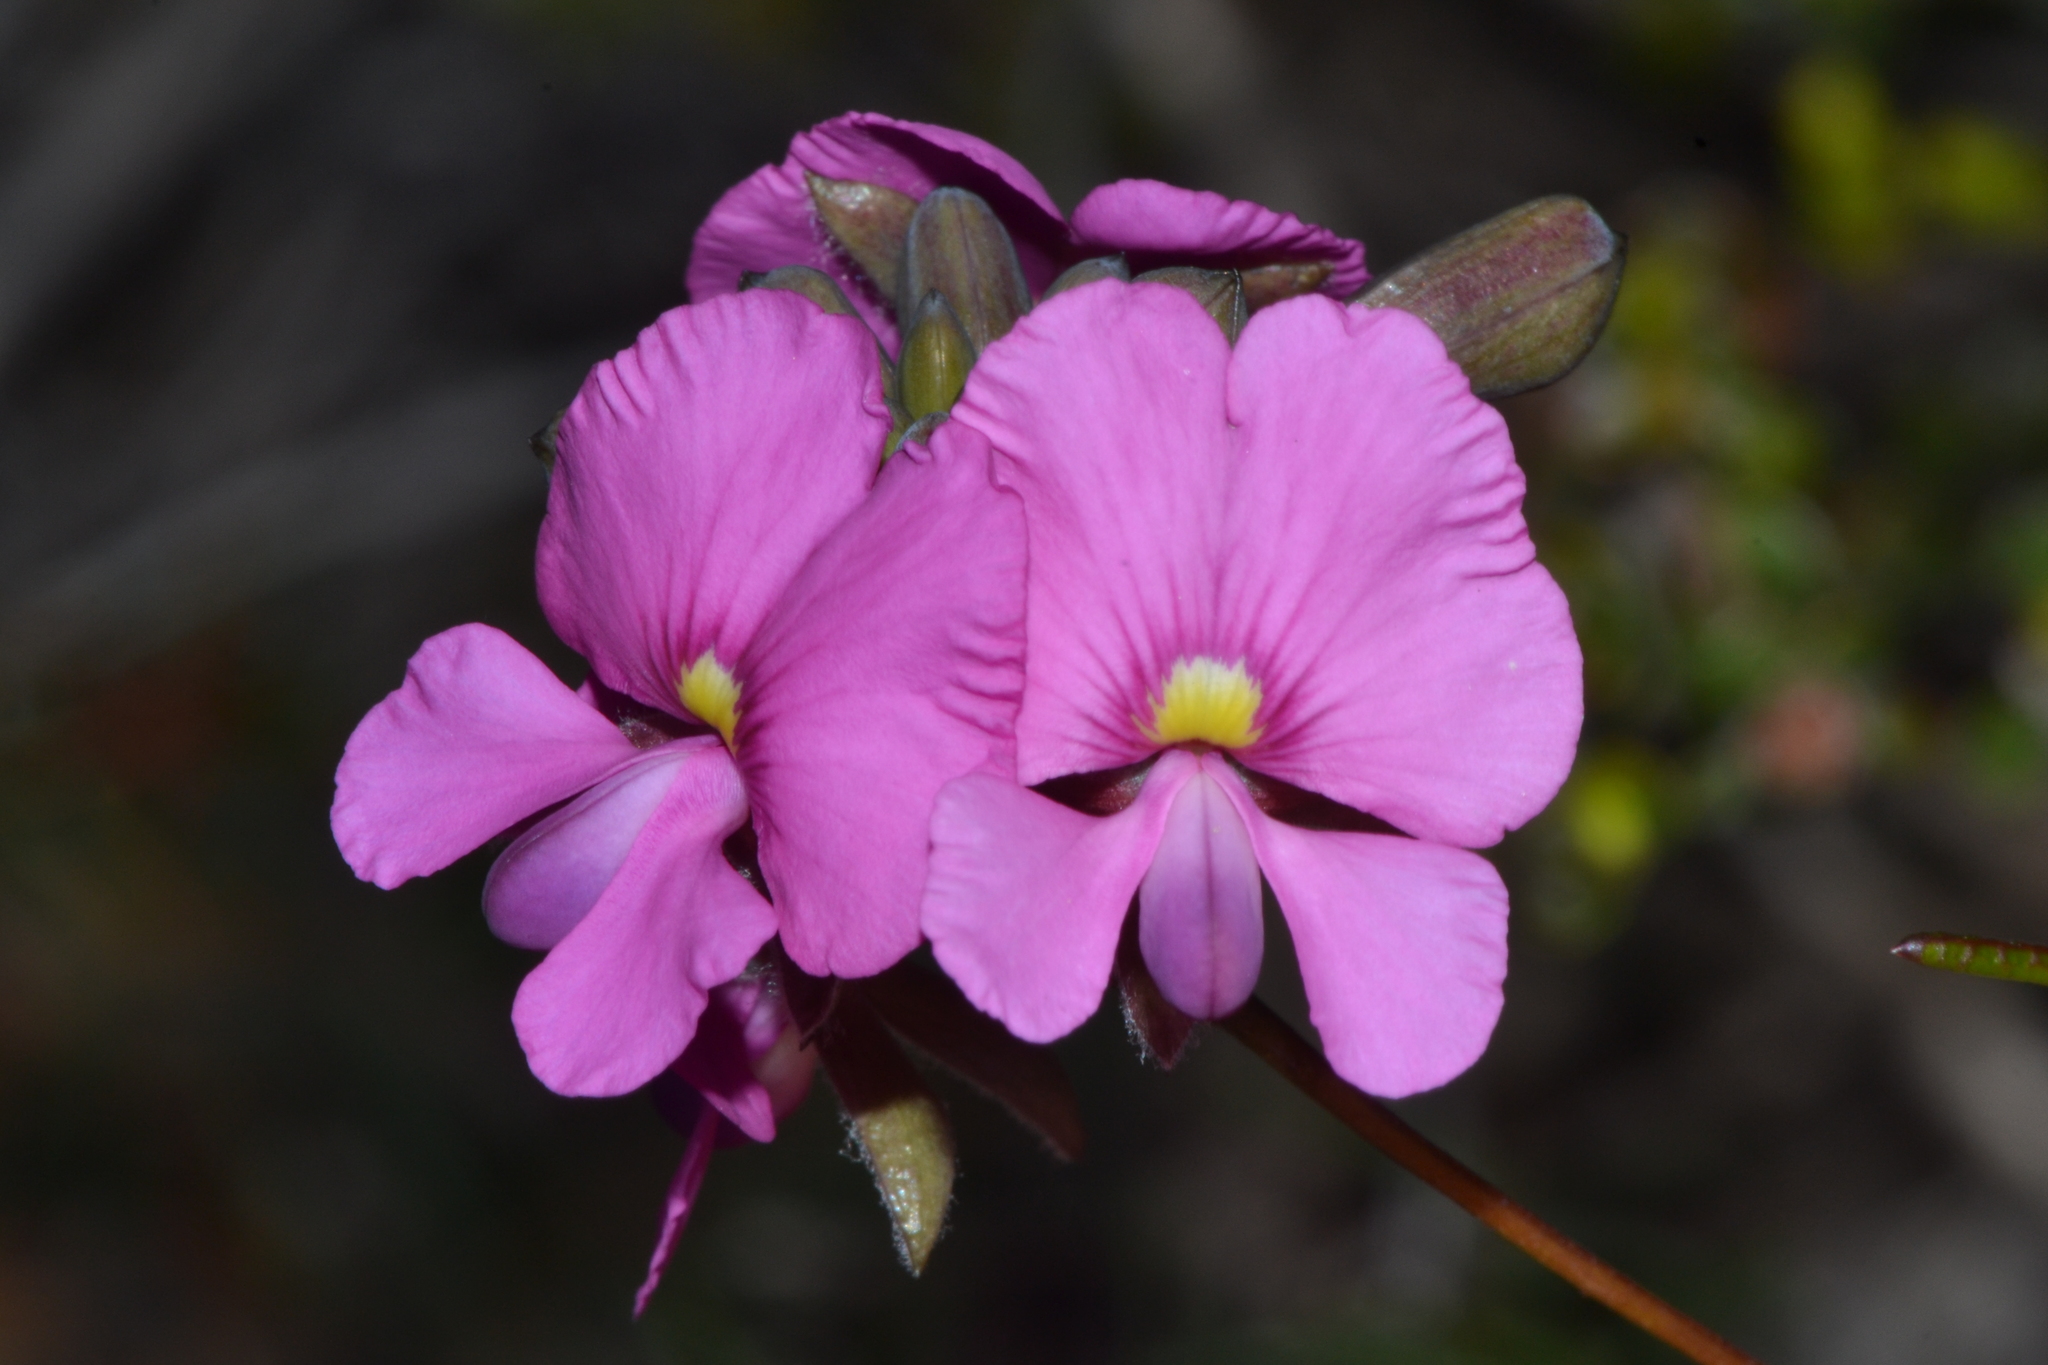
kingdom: Plantae
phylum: Tracheophyta
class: Magnoliopsida
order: Fabales
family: Fabaceae
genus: Gompholobium
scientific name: Gompholobium knightianum
